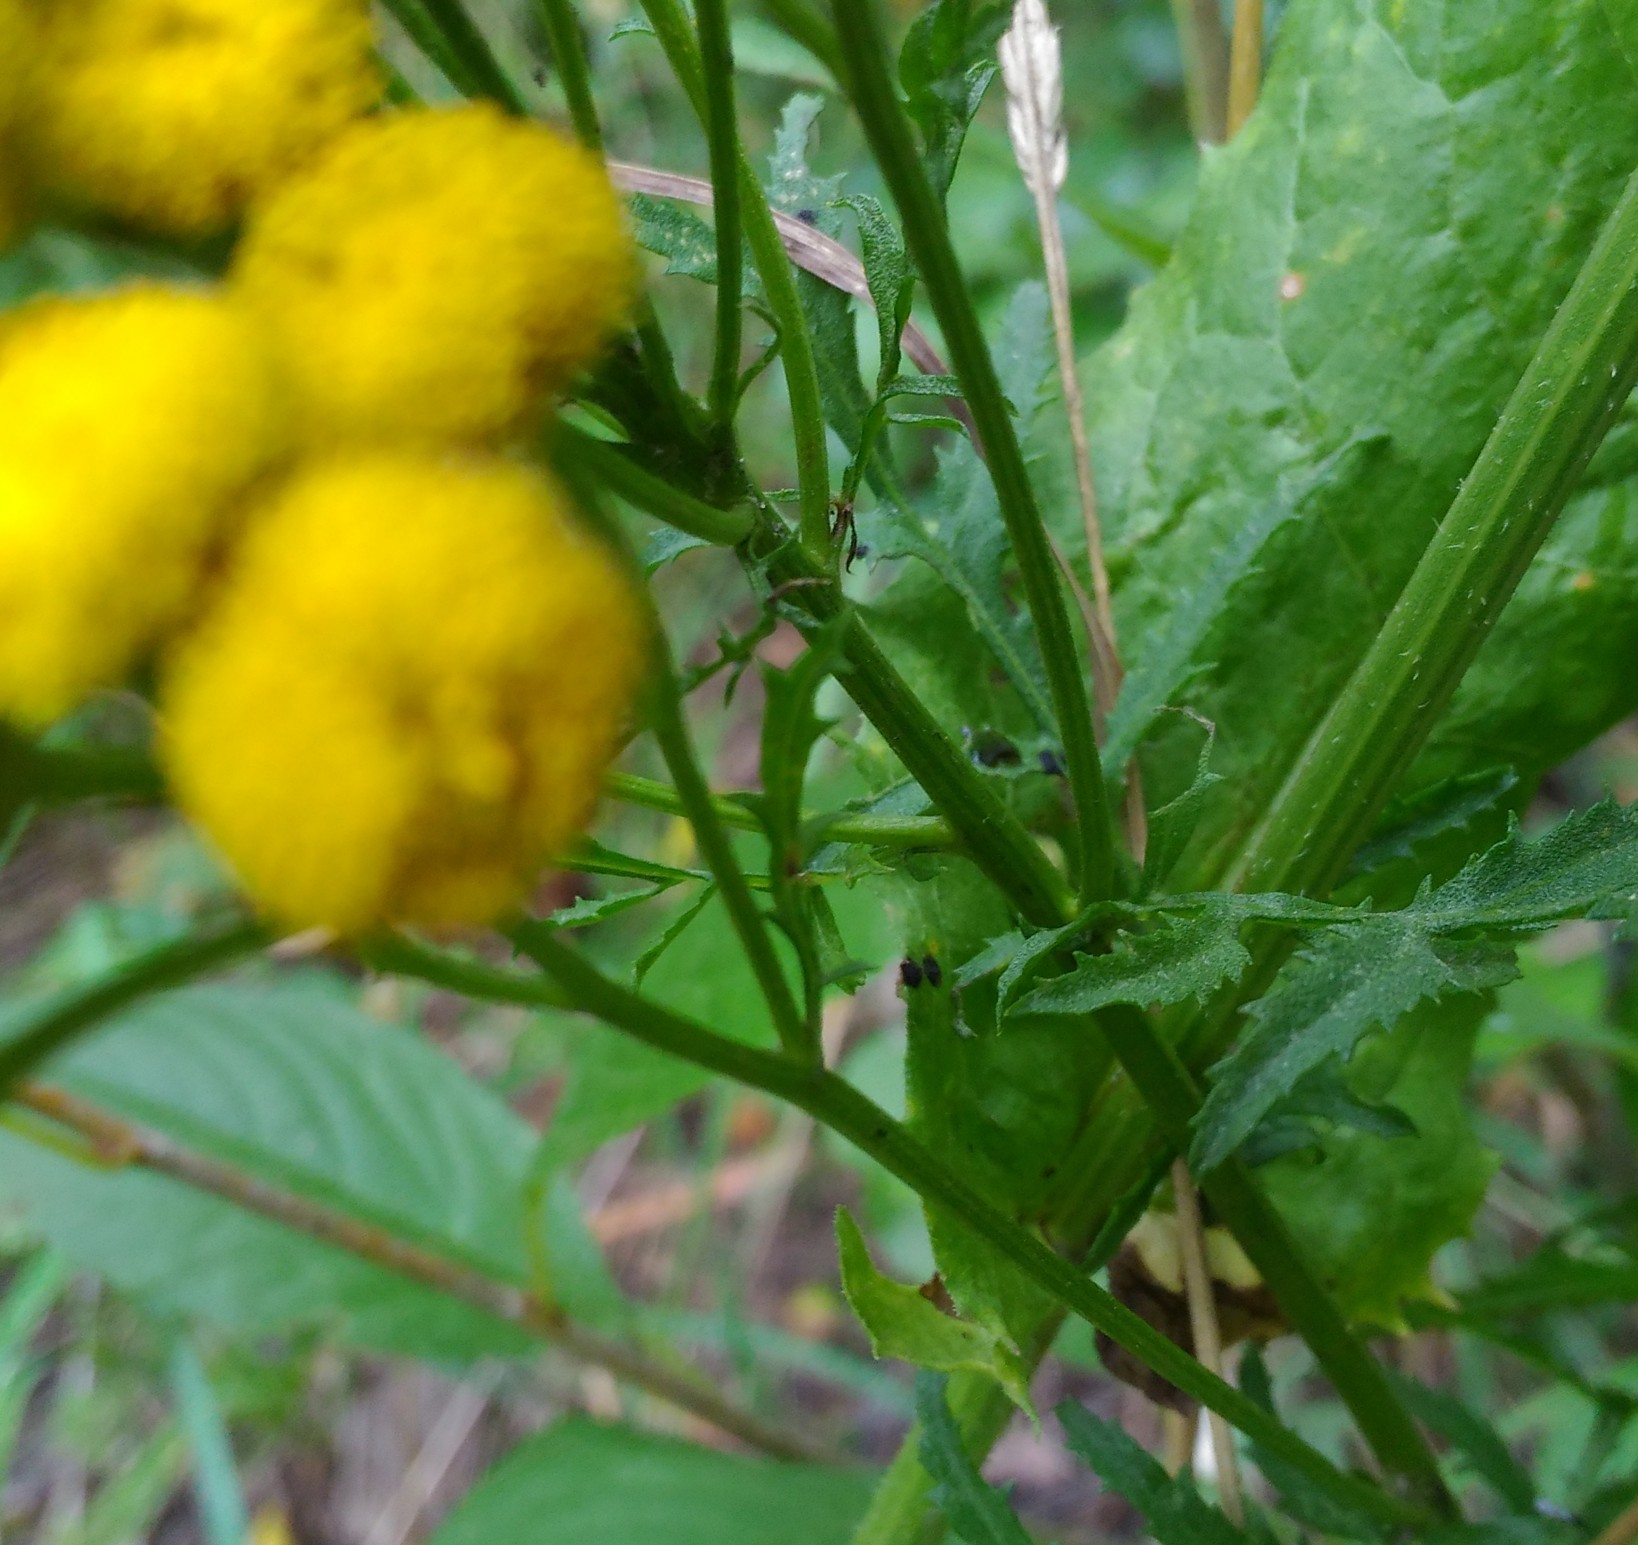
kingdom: Plantae
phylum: Tracheophyta
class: Magnoliopsida
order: Asterales
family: Asteraceae
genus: Tanacetum
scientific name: Tanacetum vulgare
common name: Common tansy
